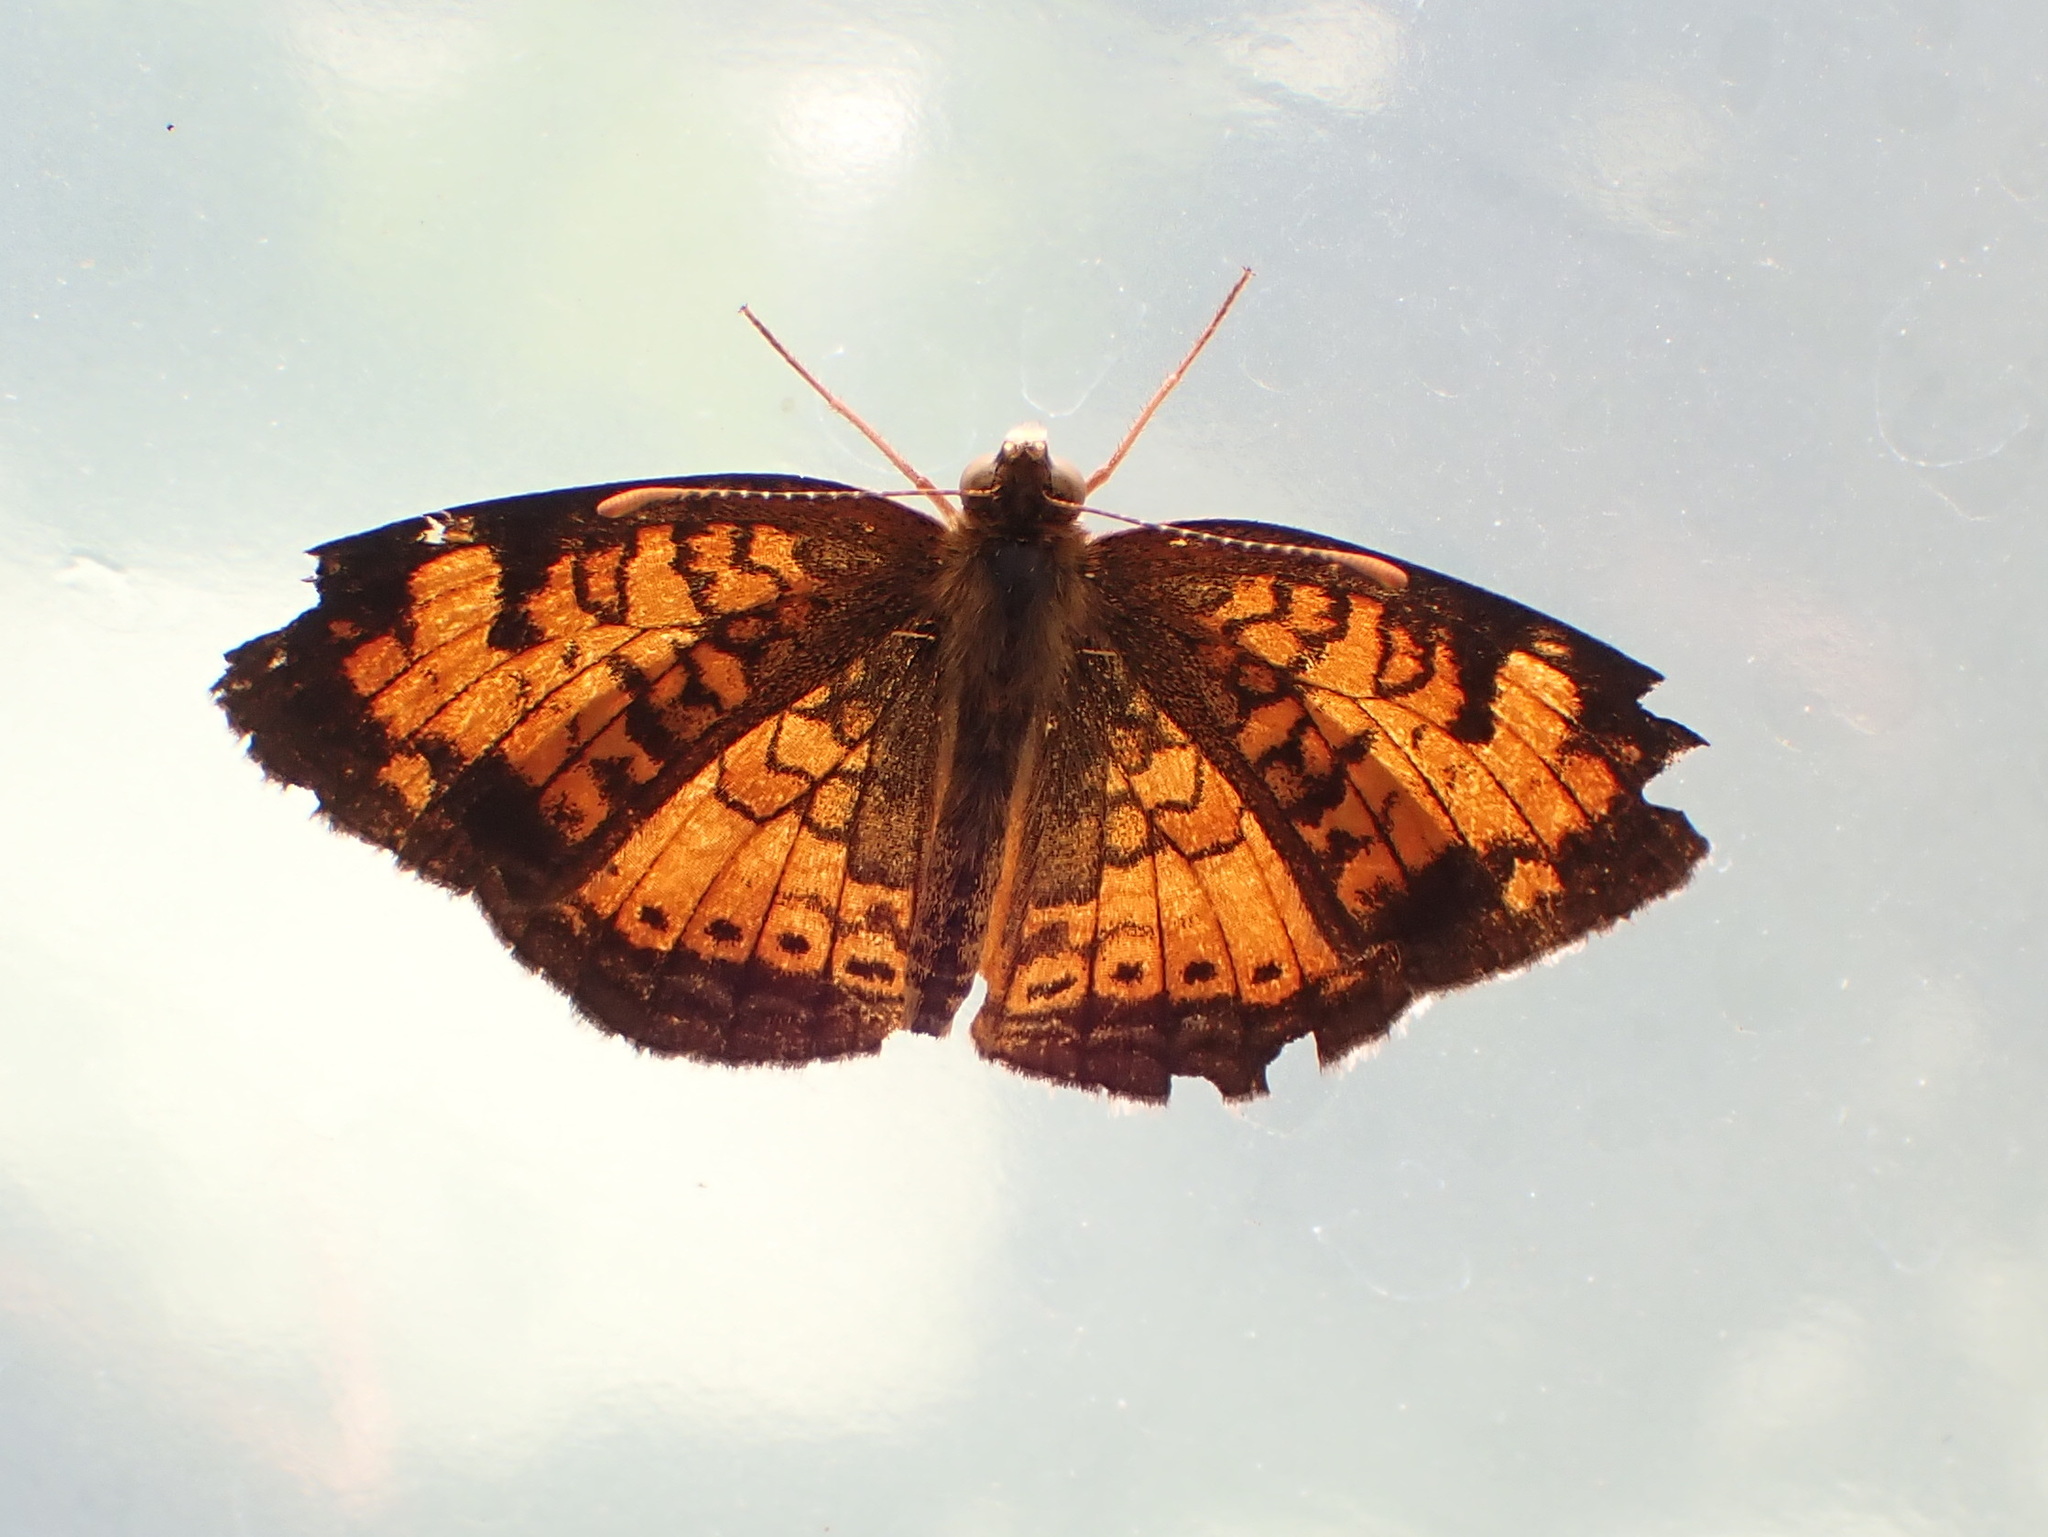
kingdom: Animalia
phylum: Arthropoda
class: Insecta
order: Lepidoptera
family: Nymphalidae
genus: Phyciodes
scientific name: Phyciodes tharos
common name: Pearl crescent
